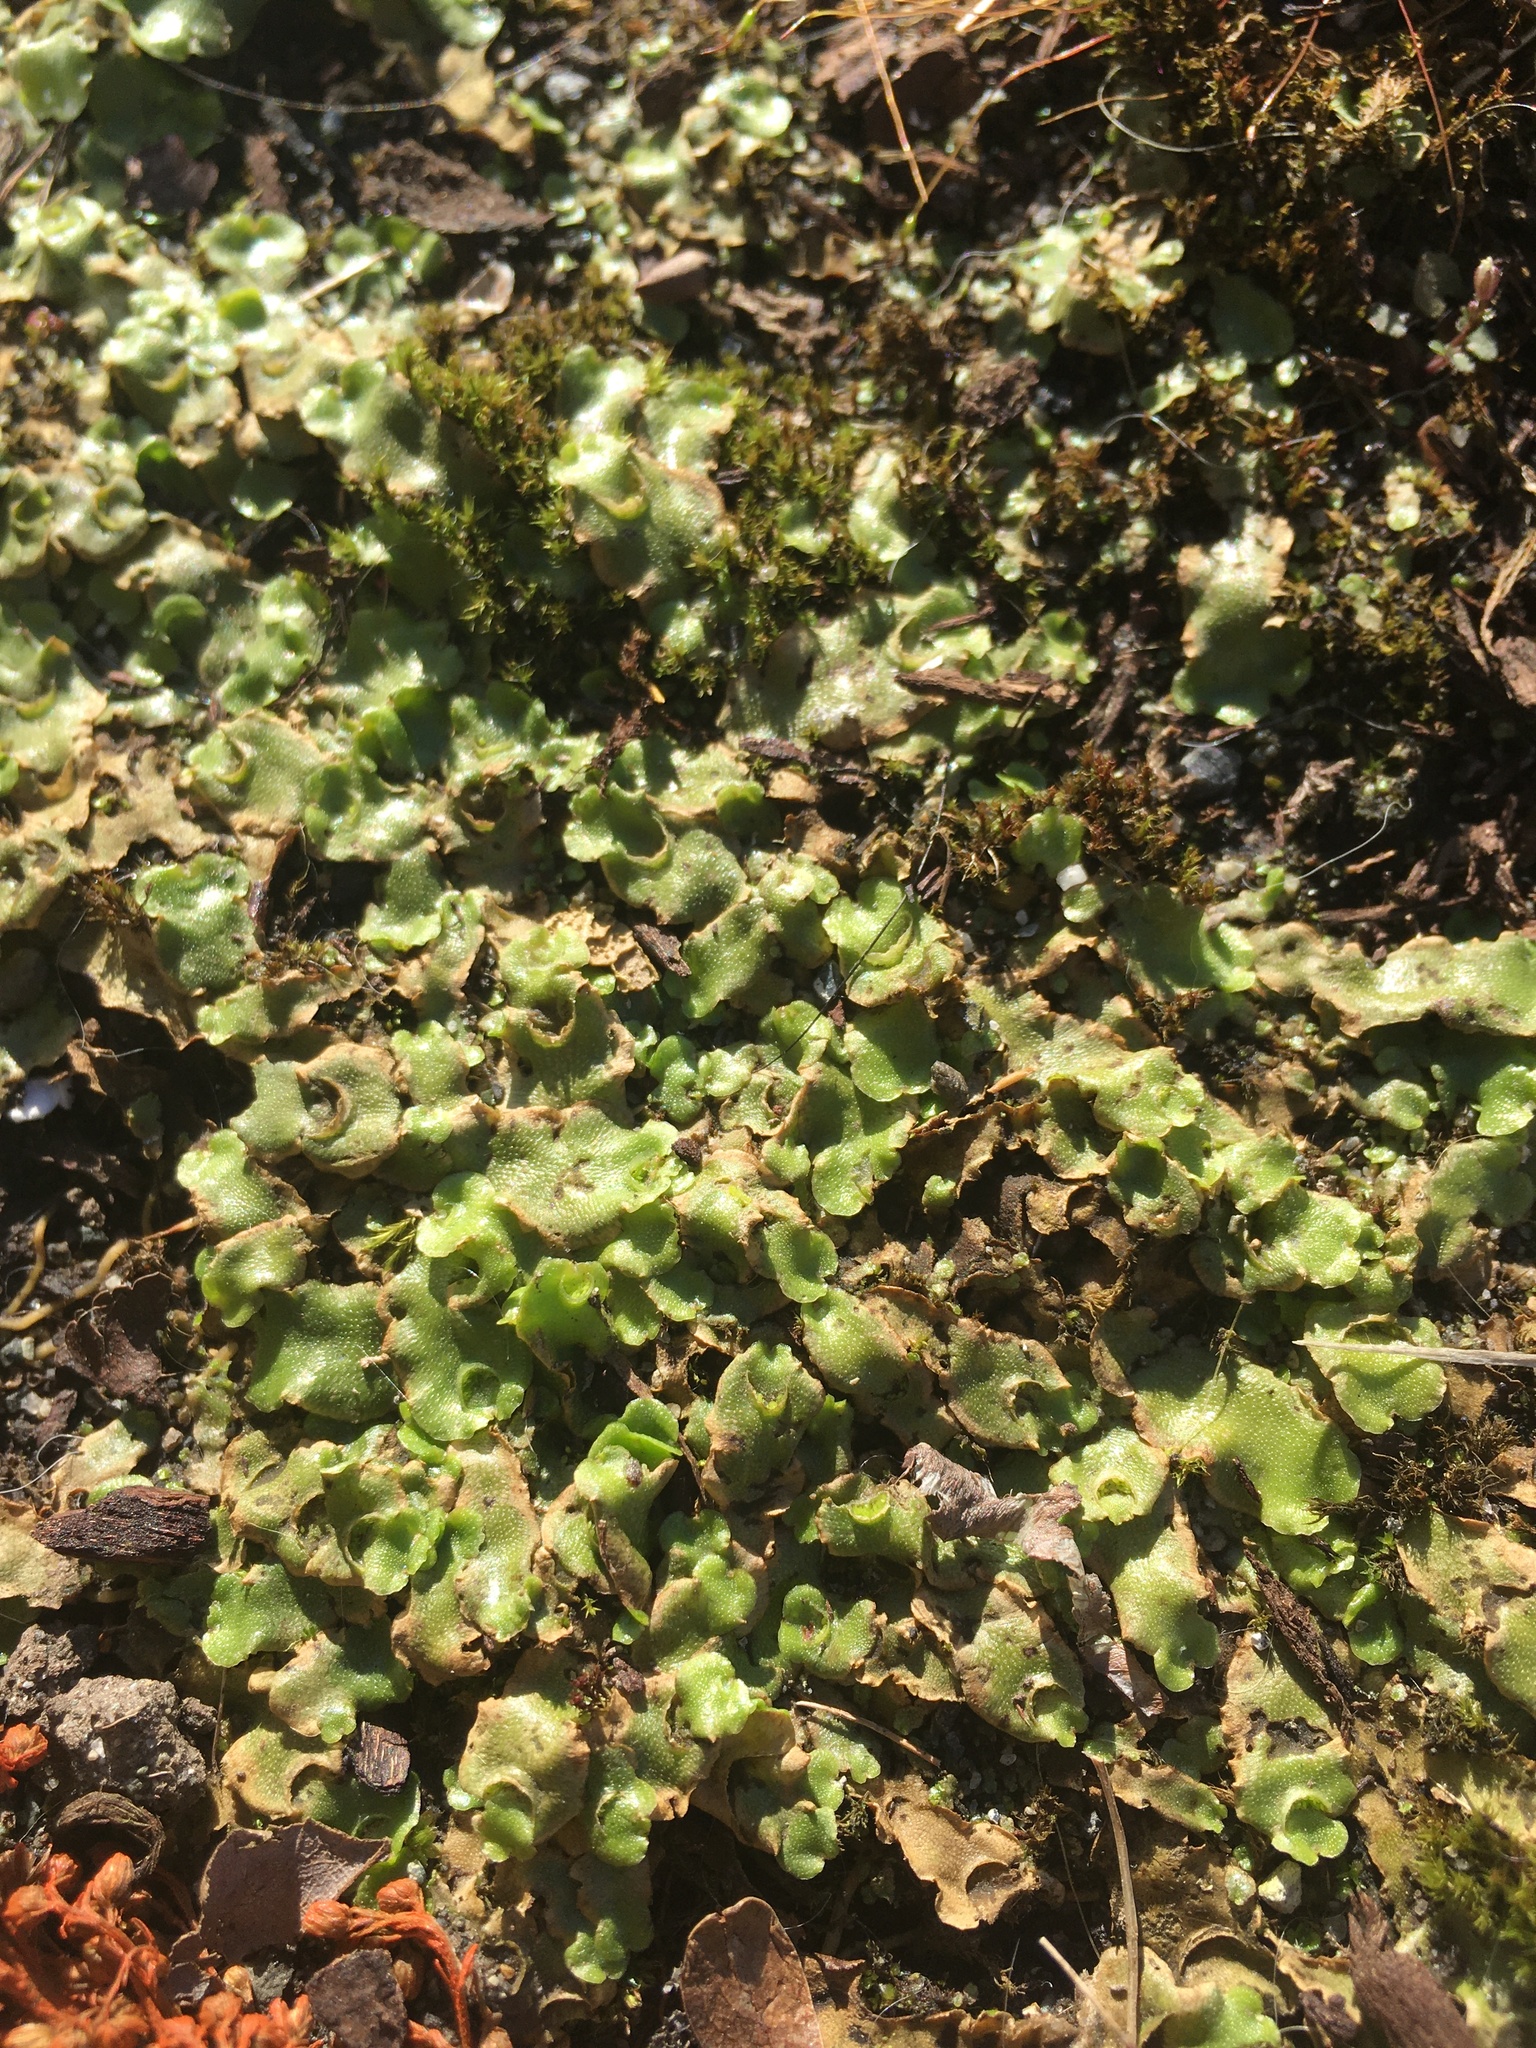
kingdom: Plantae
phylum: Marchantiophyta
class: Marchantiopsida
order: Lunulariales
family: Lunulariaceae
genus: Lunularia
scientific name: Lunularia cruciata
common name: Crescent-cup liverwort
